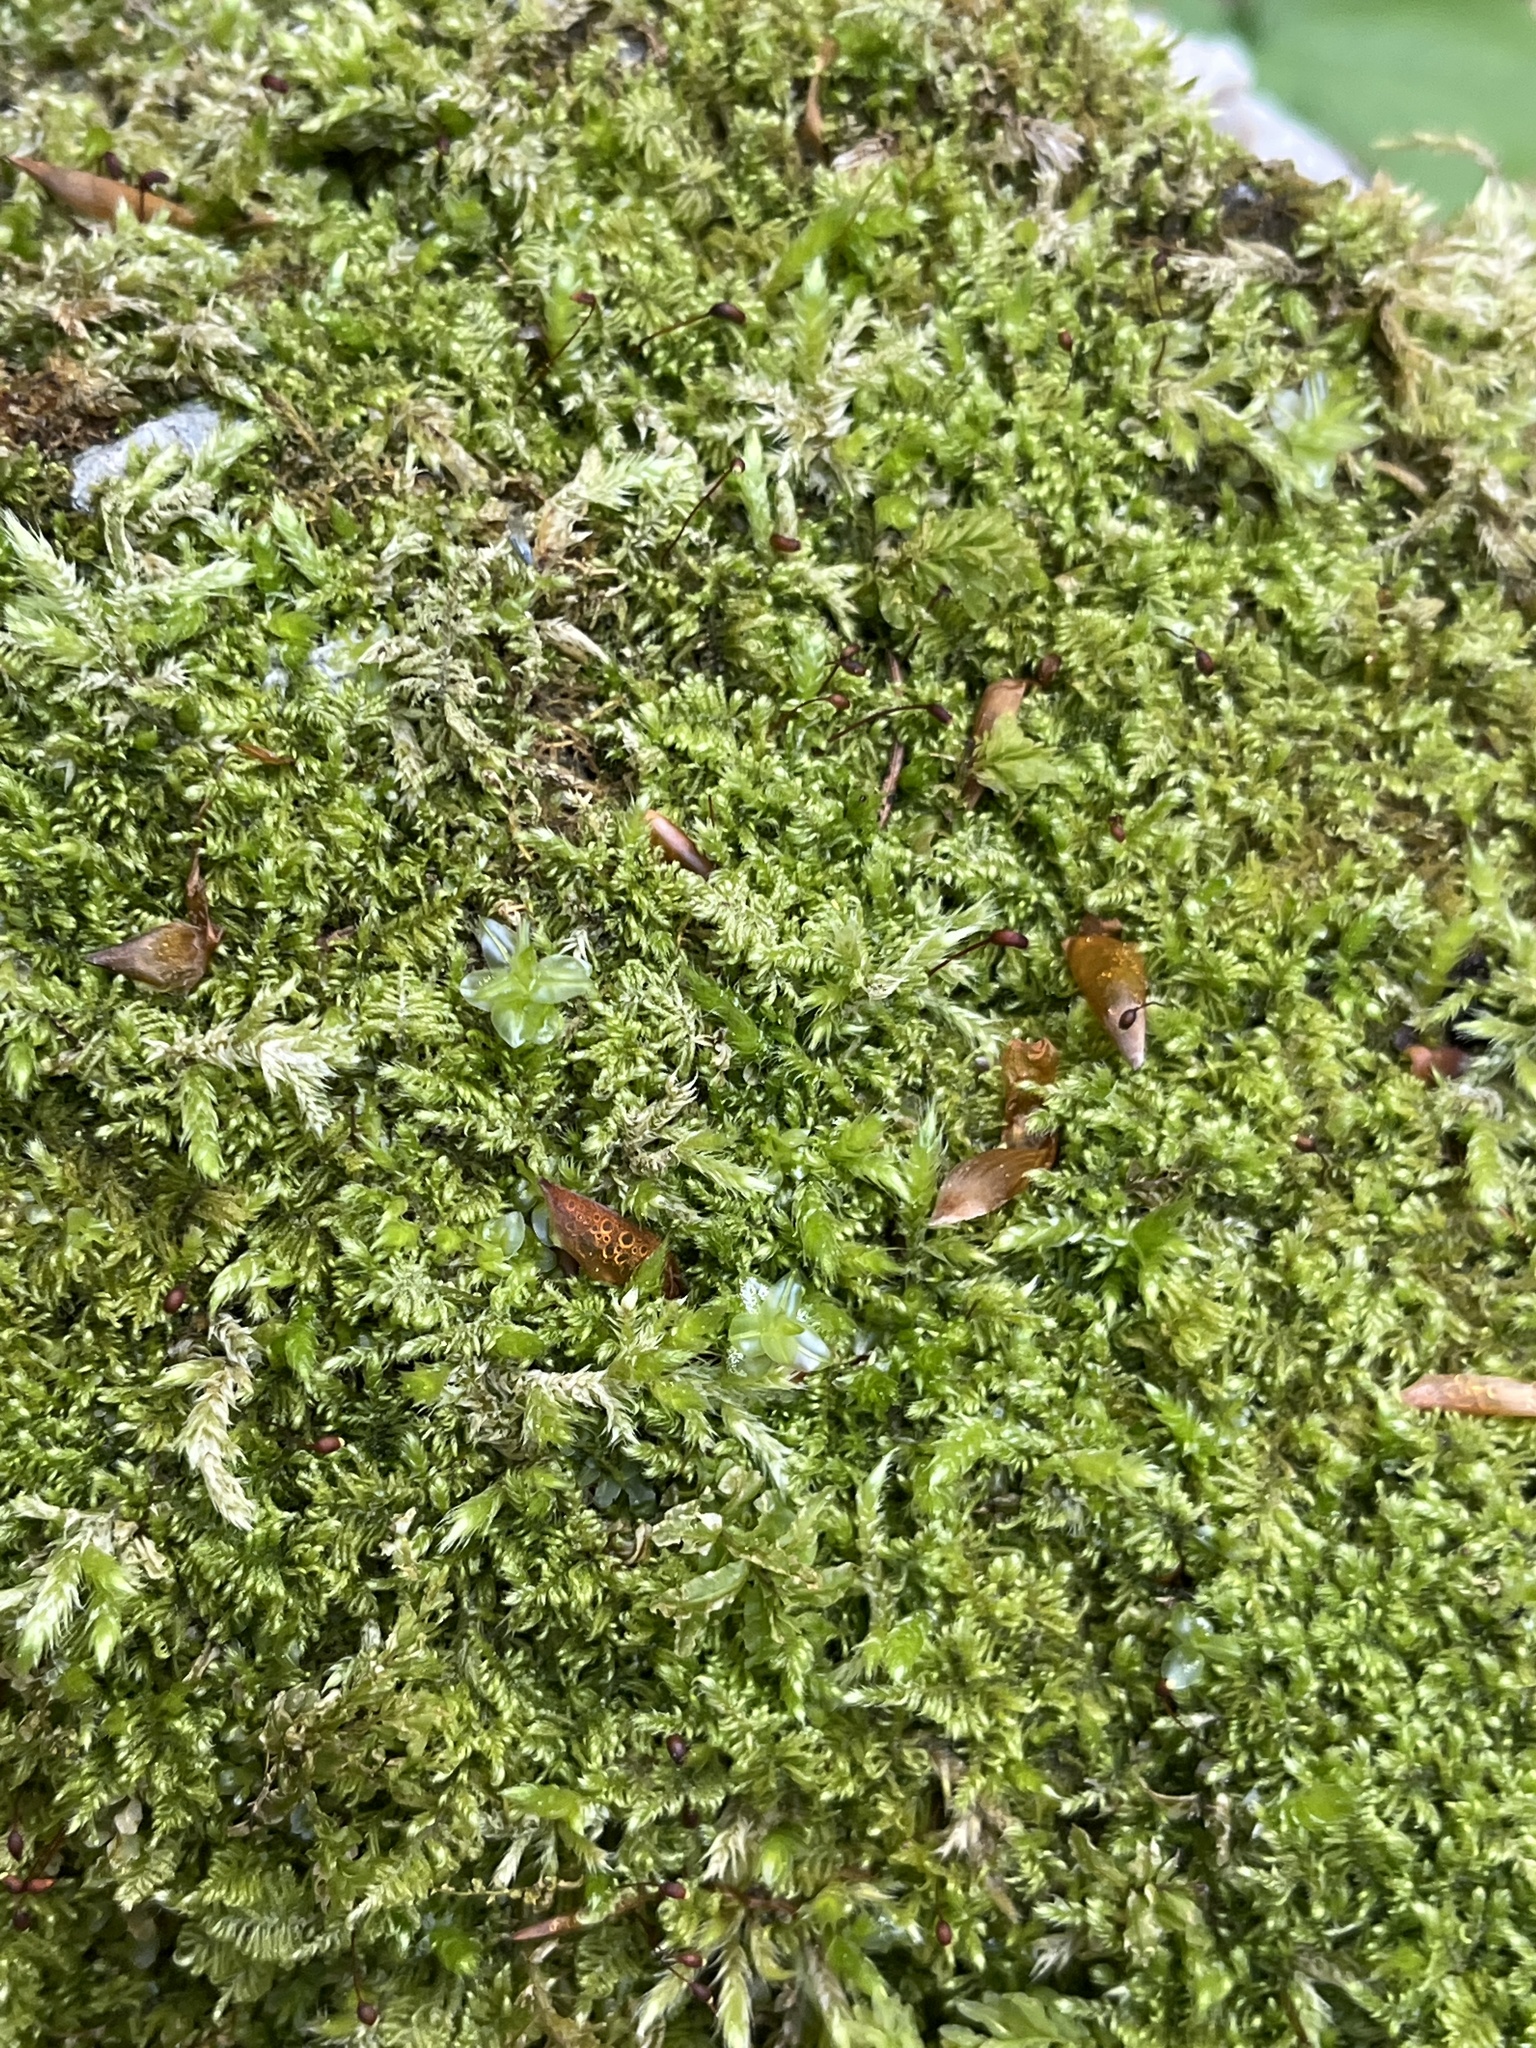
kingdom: Plantae
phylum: Bryophyta
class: Bryopsida
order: Hypnales
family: Myuriaceae
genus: Ctenidium
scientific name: Ctenidium molluscum
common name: Chalk comb-moss
